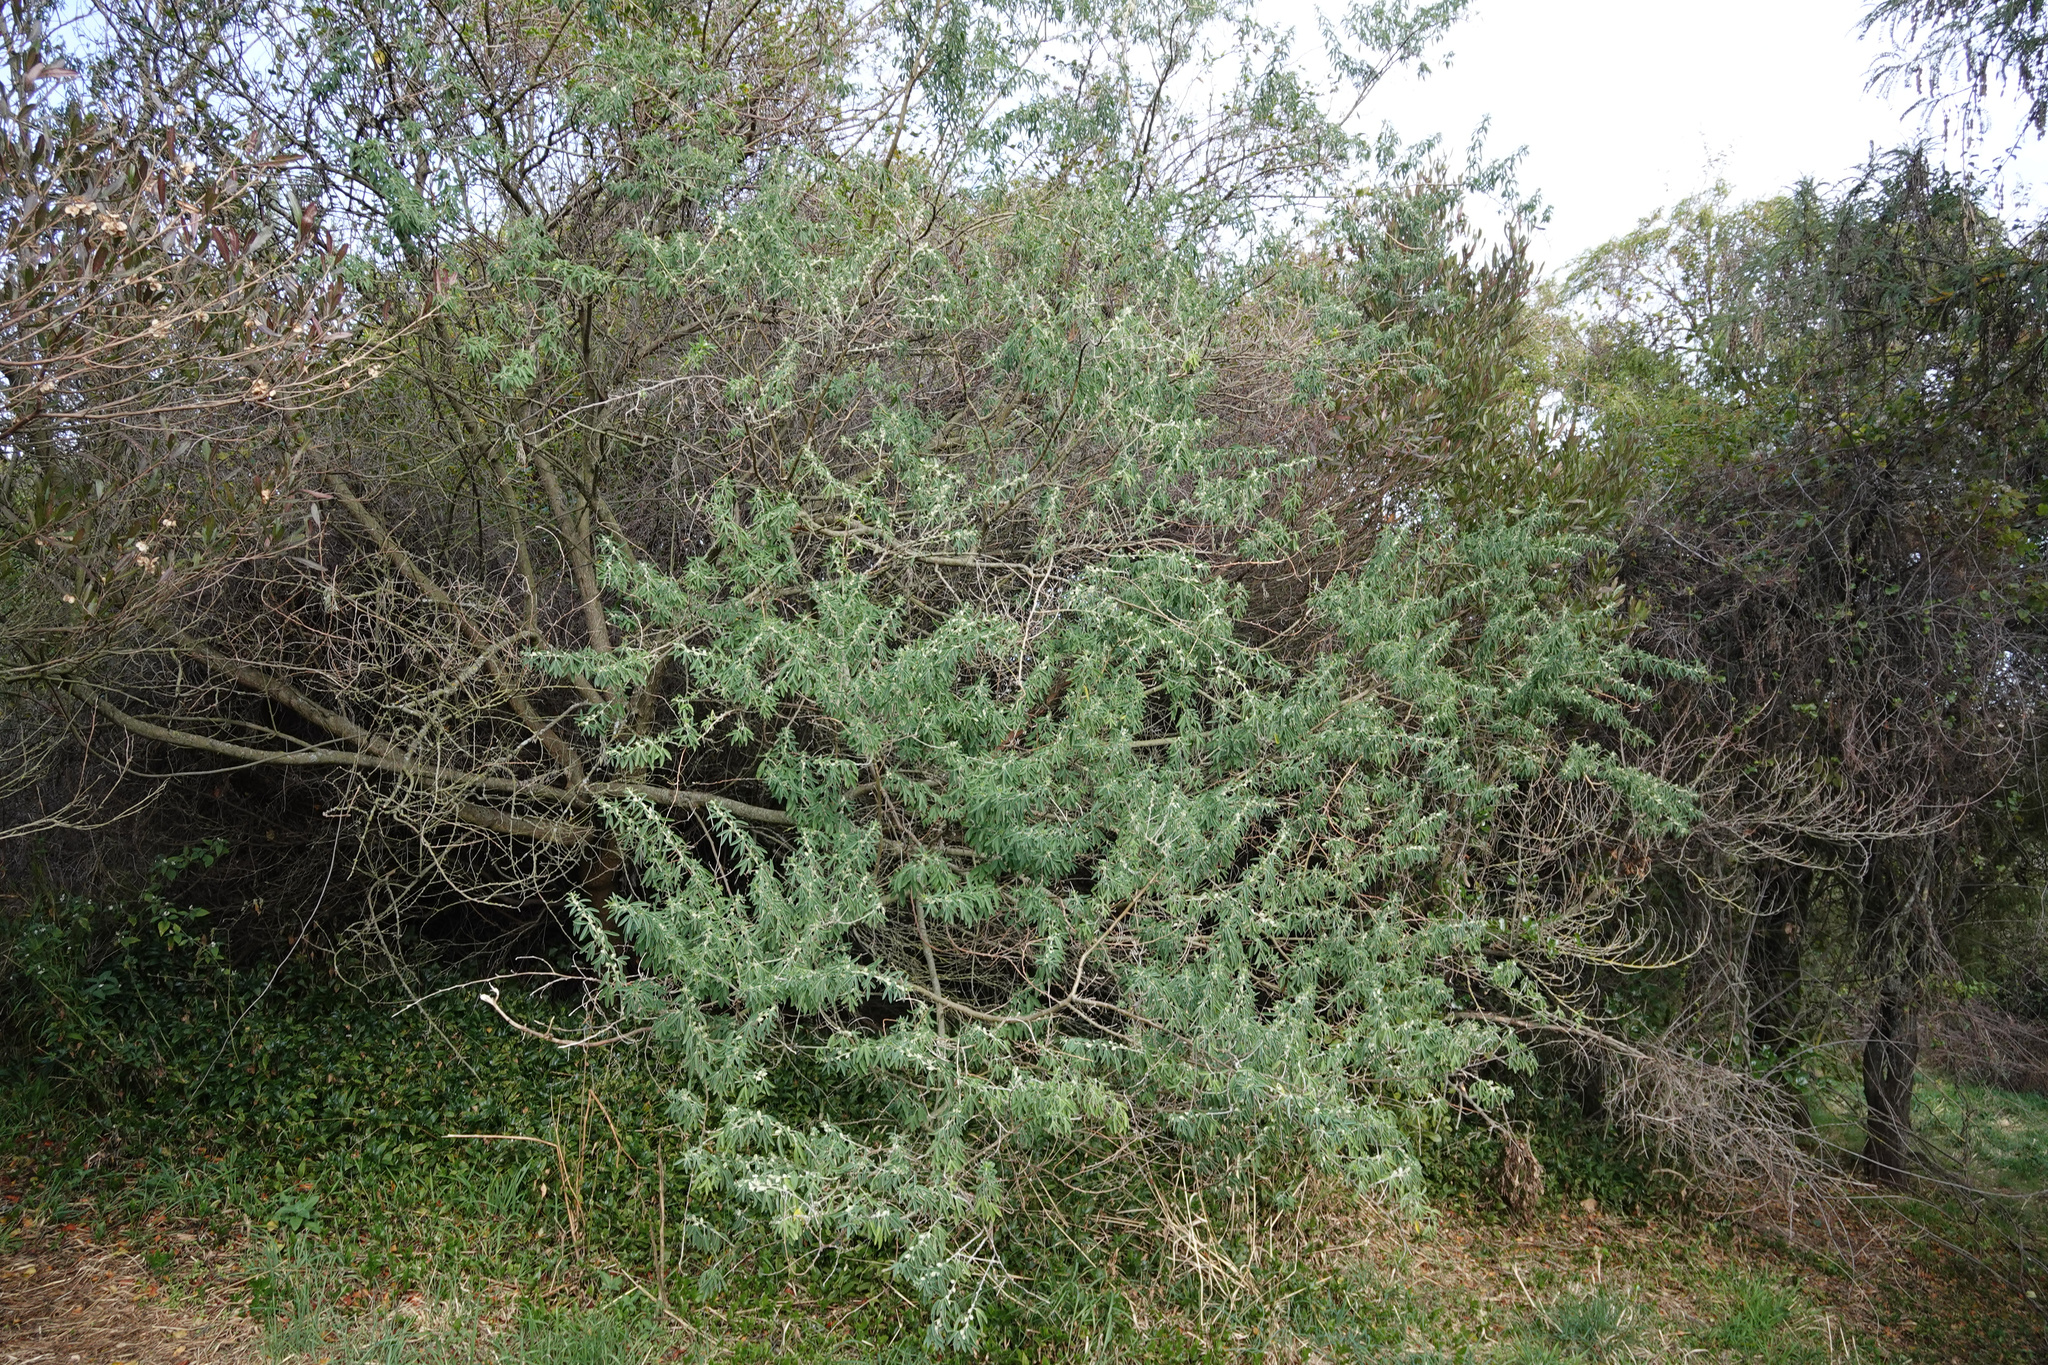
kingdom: Plantae
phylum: Tracheophyta
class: Magnoliopsida
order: Fabales
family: Fabaceae
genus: Chamaecytisus
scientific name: Chamaecytisus prolifer
